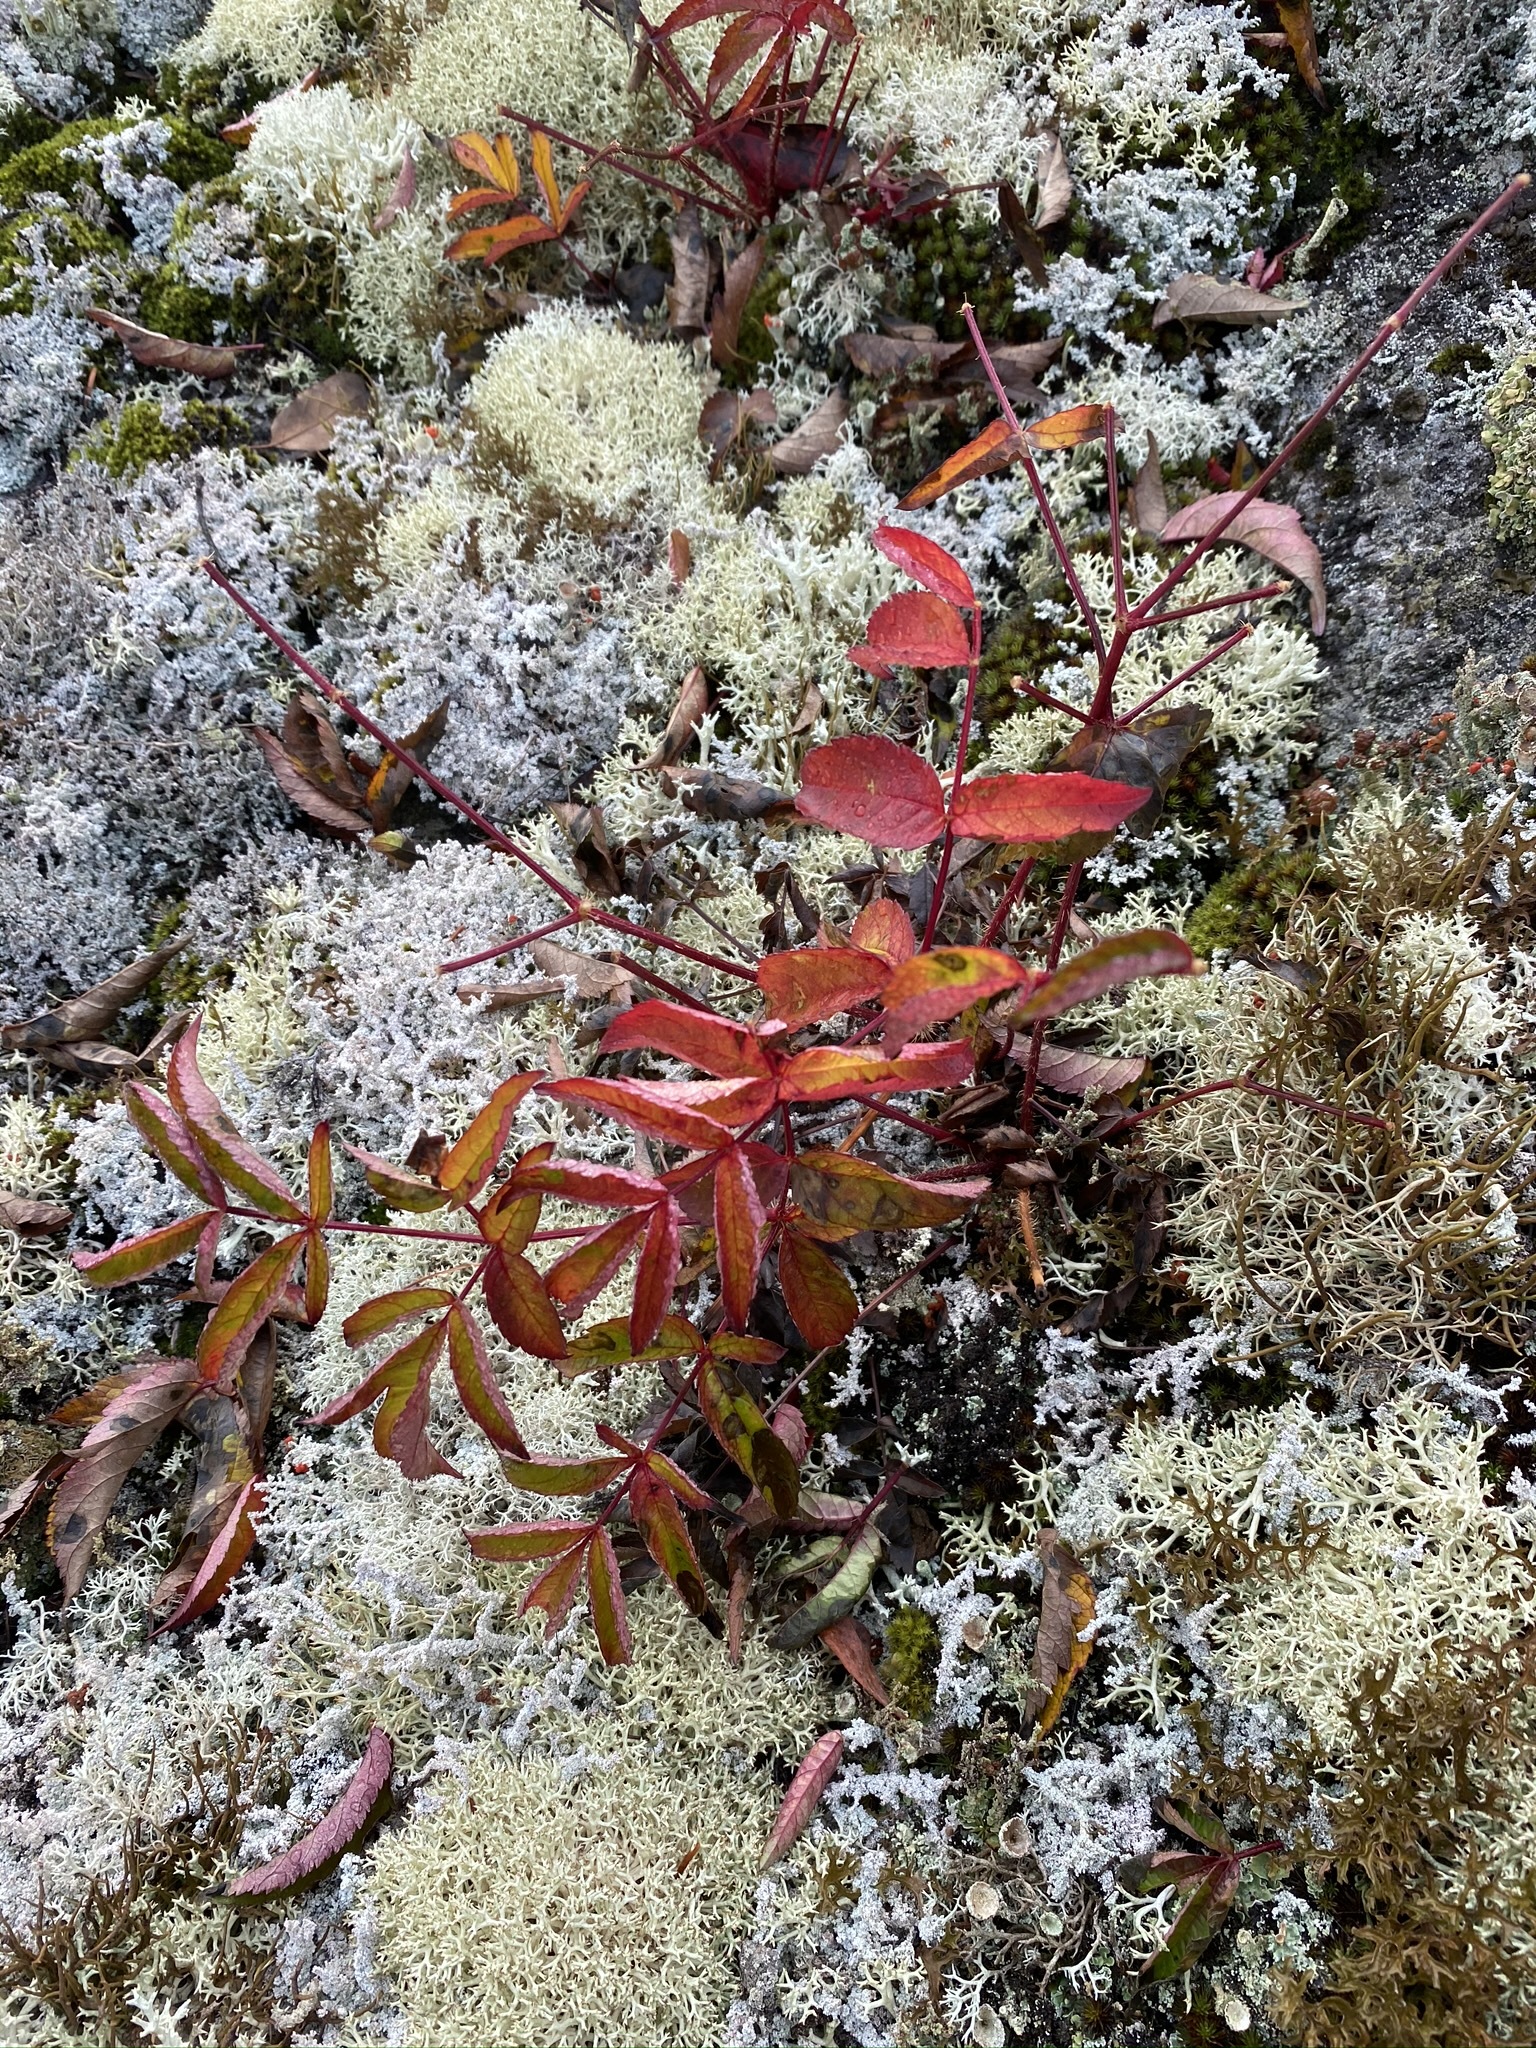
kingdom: Plantae
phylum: Tracheophyta
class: Magnoliopsida
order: Apiales
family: Araliaceae
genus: Aralia
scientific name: Aralia hispida
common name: Bristly sarsaparilla
